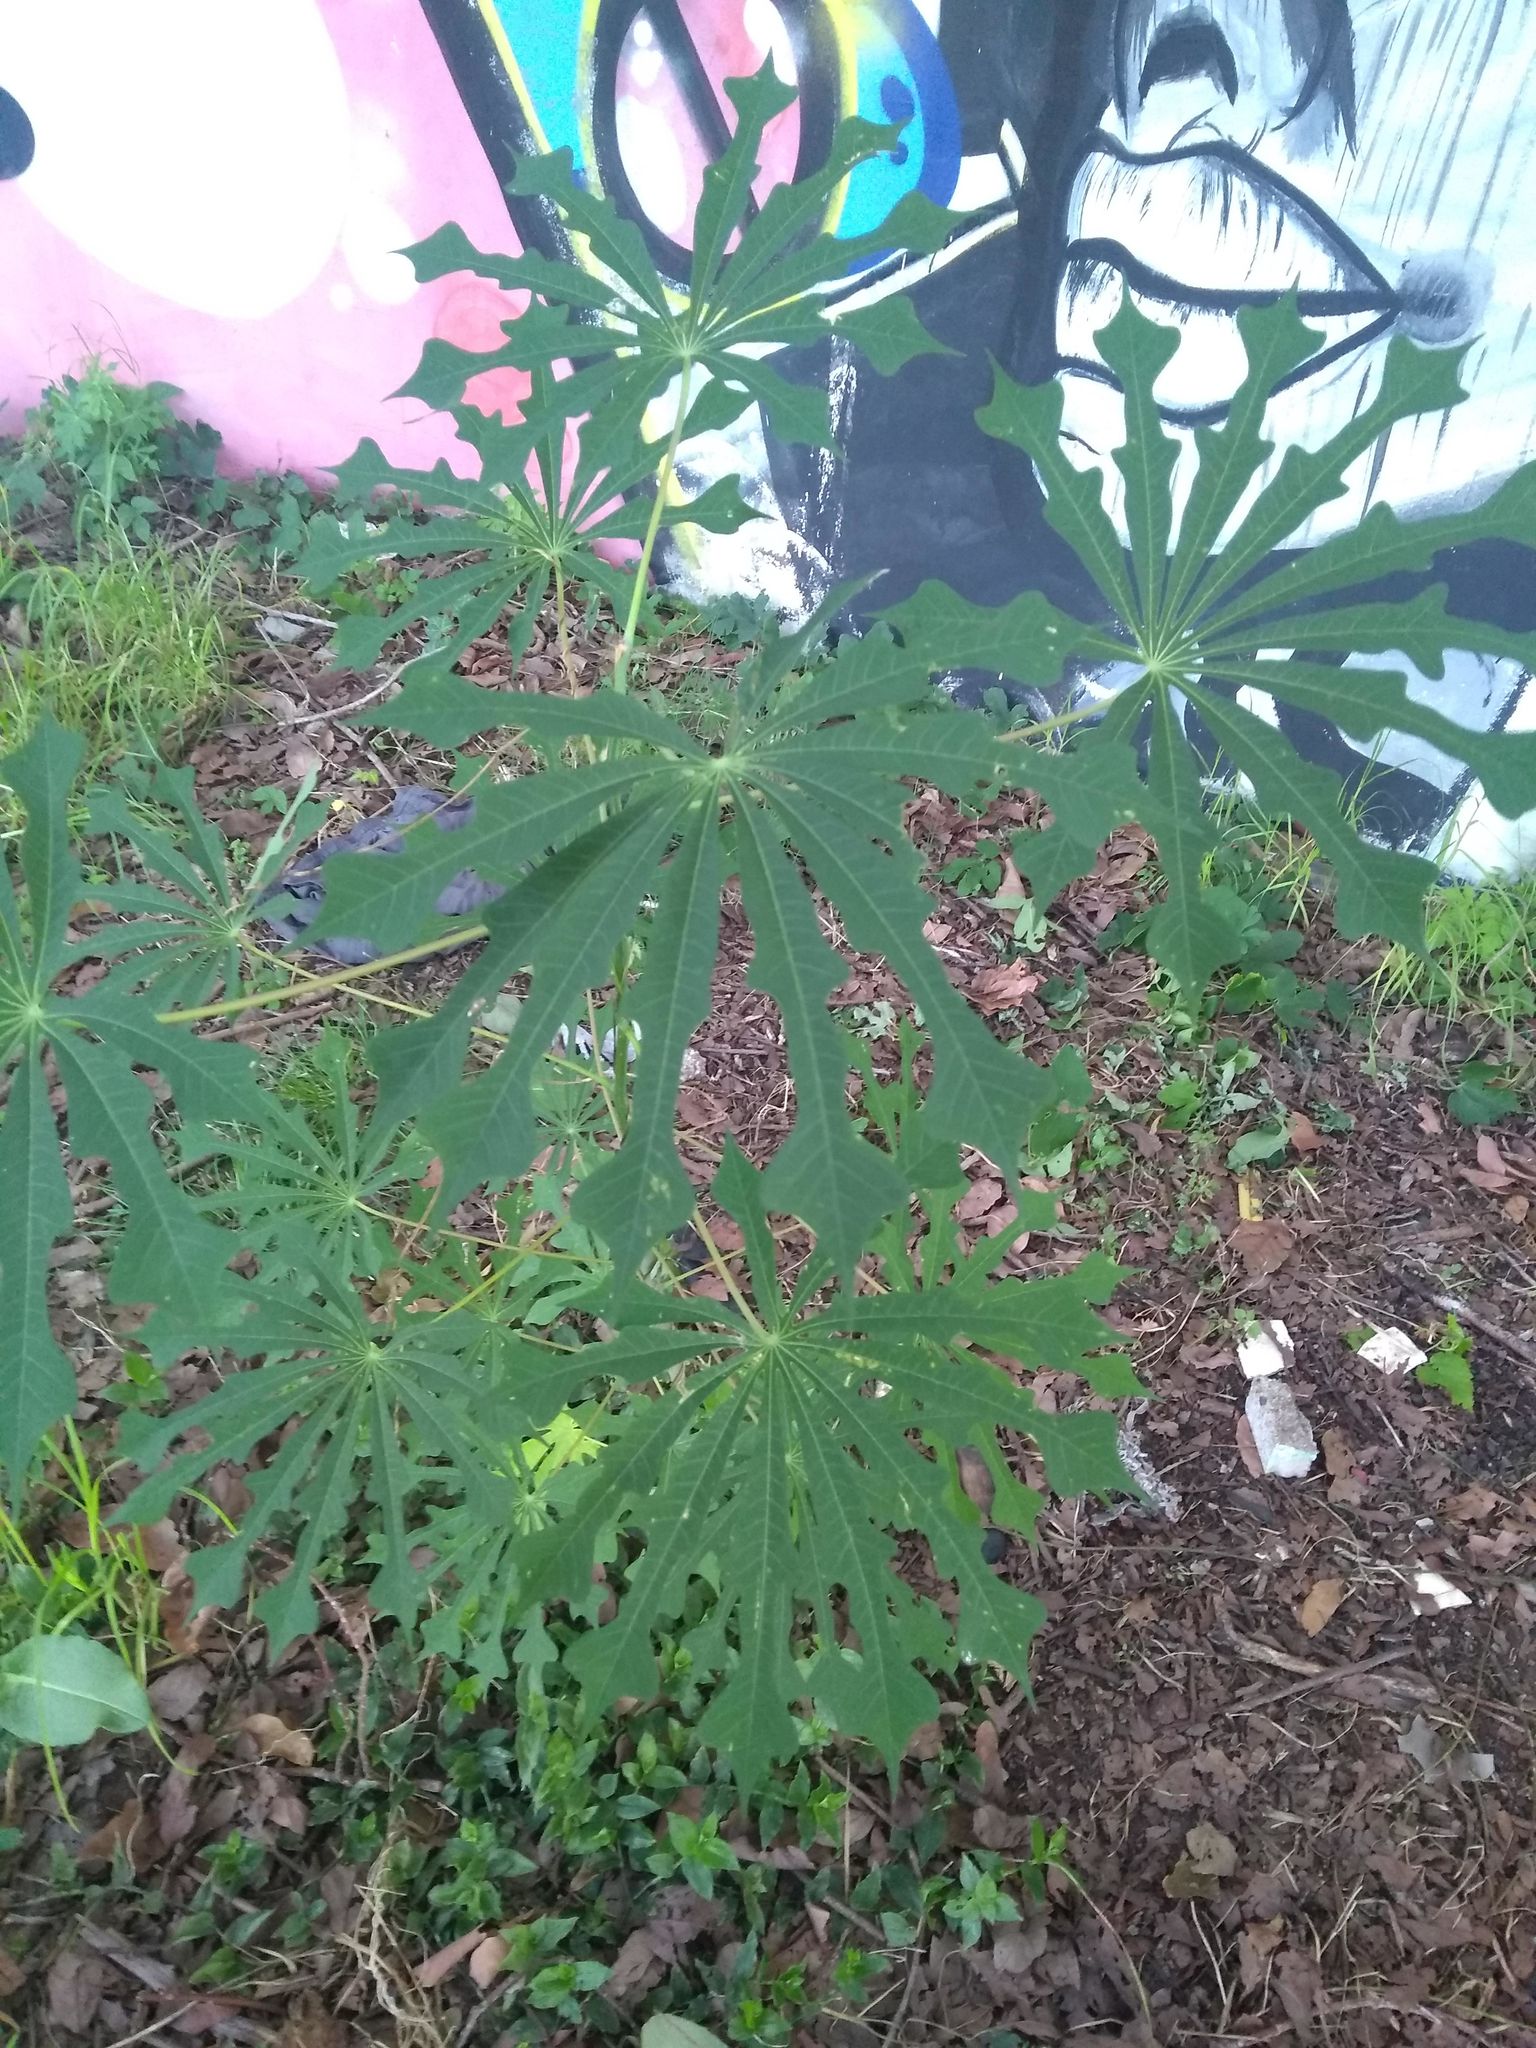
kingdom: Plantae
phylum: Tracheophyta
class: Magnoliopsida
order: Malpighiales
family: Euphorbiaceae
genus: Manihot
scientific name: Manihot grahamii
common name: Graham's manihot
